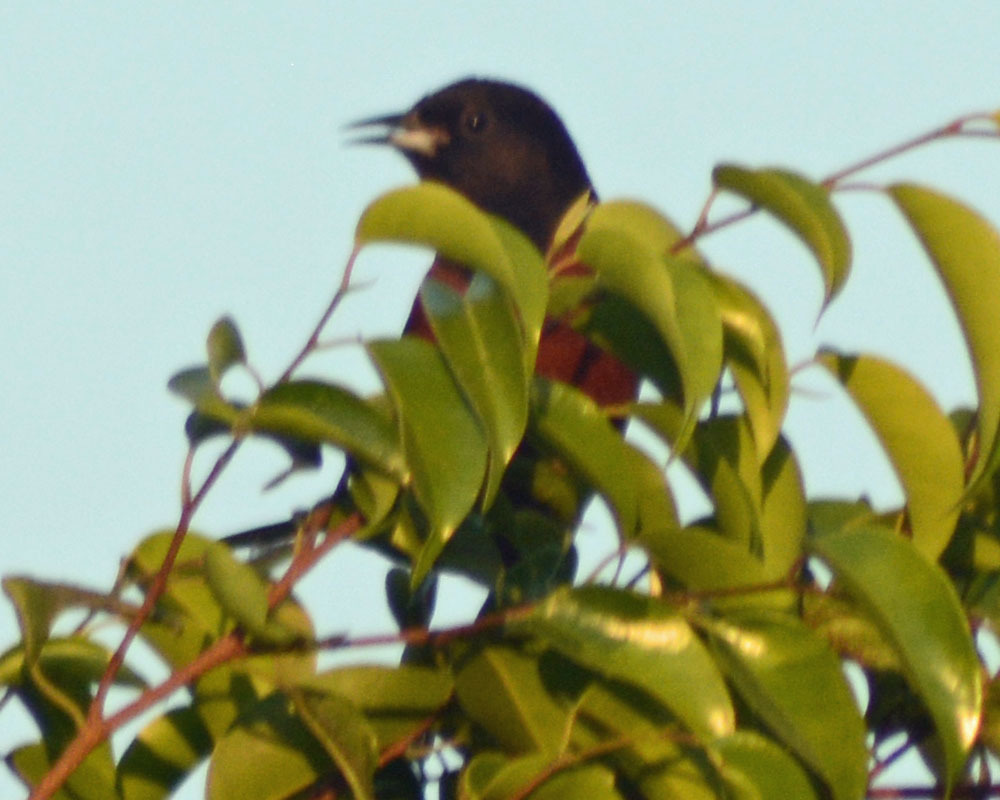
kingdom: Animalia
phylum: Chordata
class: Aves
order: Passeriformes
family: Icteridae
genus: Icterus
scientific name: Icterus spurius
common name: Orchard oriole
